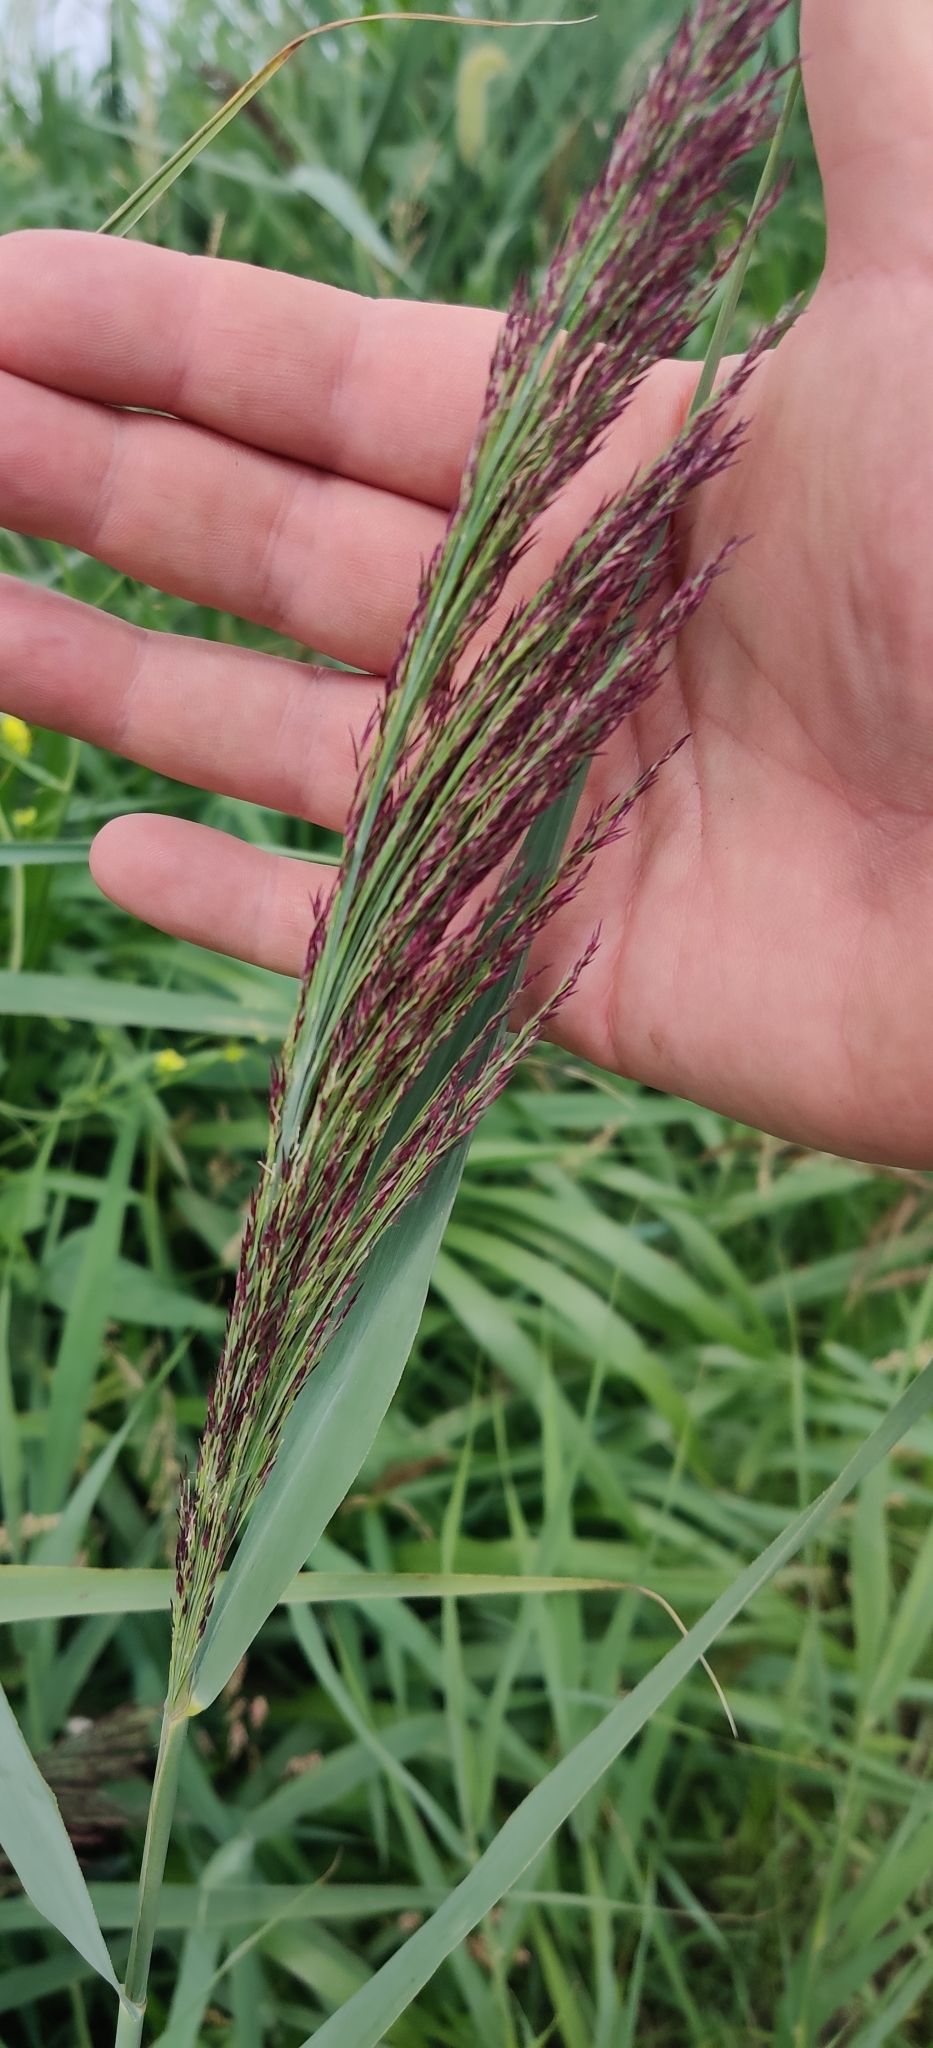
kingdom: Plantae
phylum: Tracheophyta
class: Liliopsida
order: Poales
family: Poaceae
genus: Phragmites
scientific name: Phragmites australis
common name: Common reed
